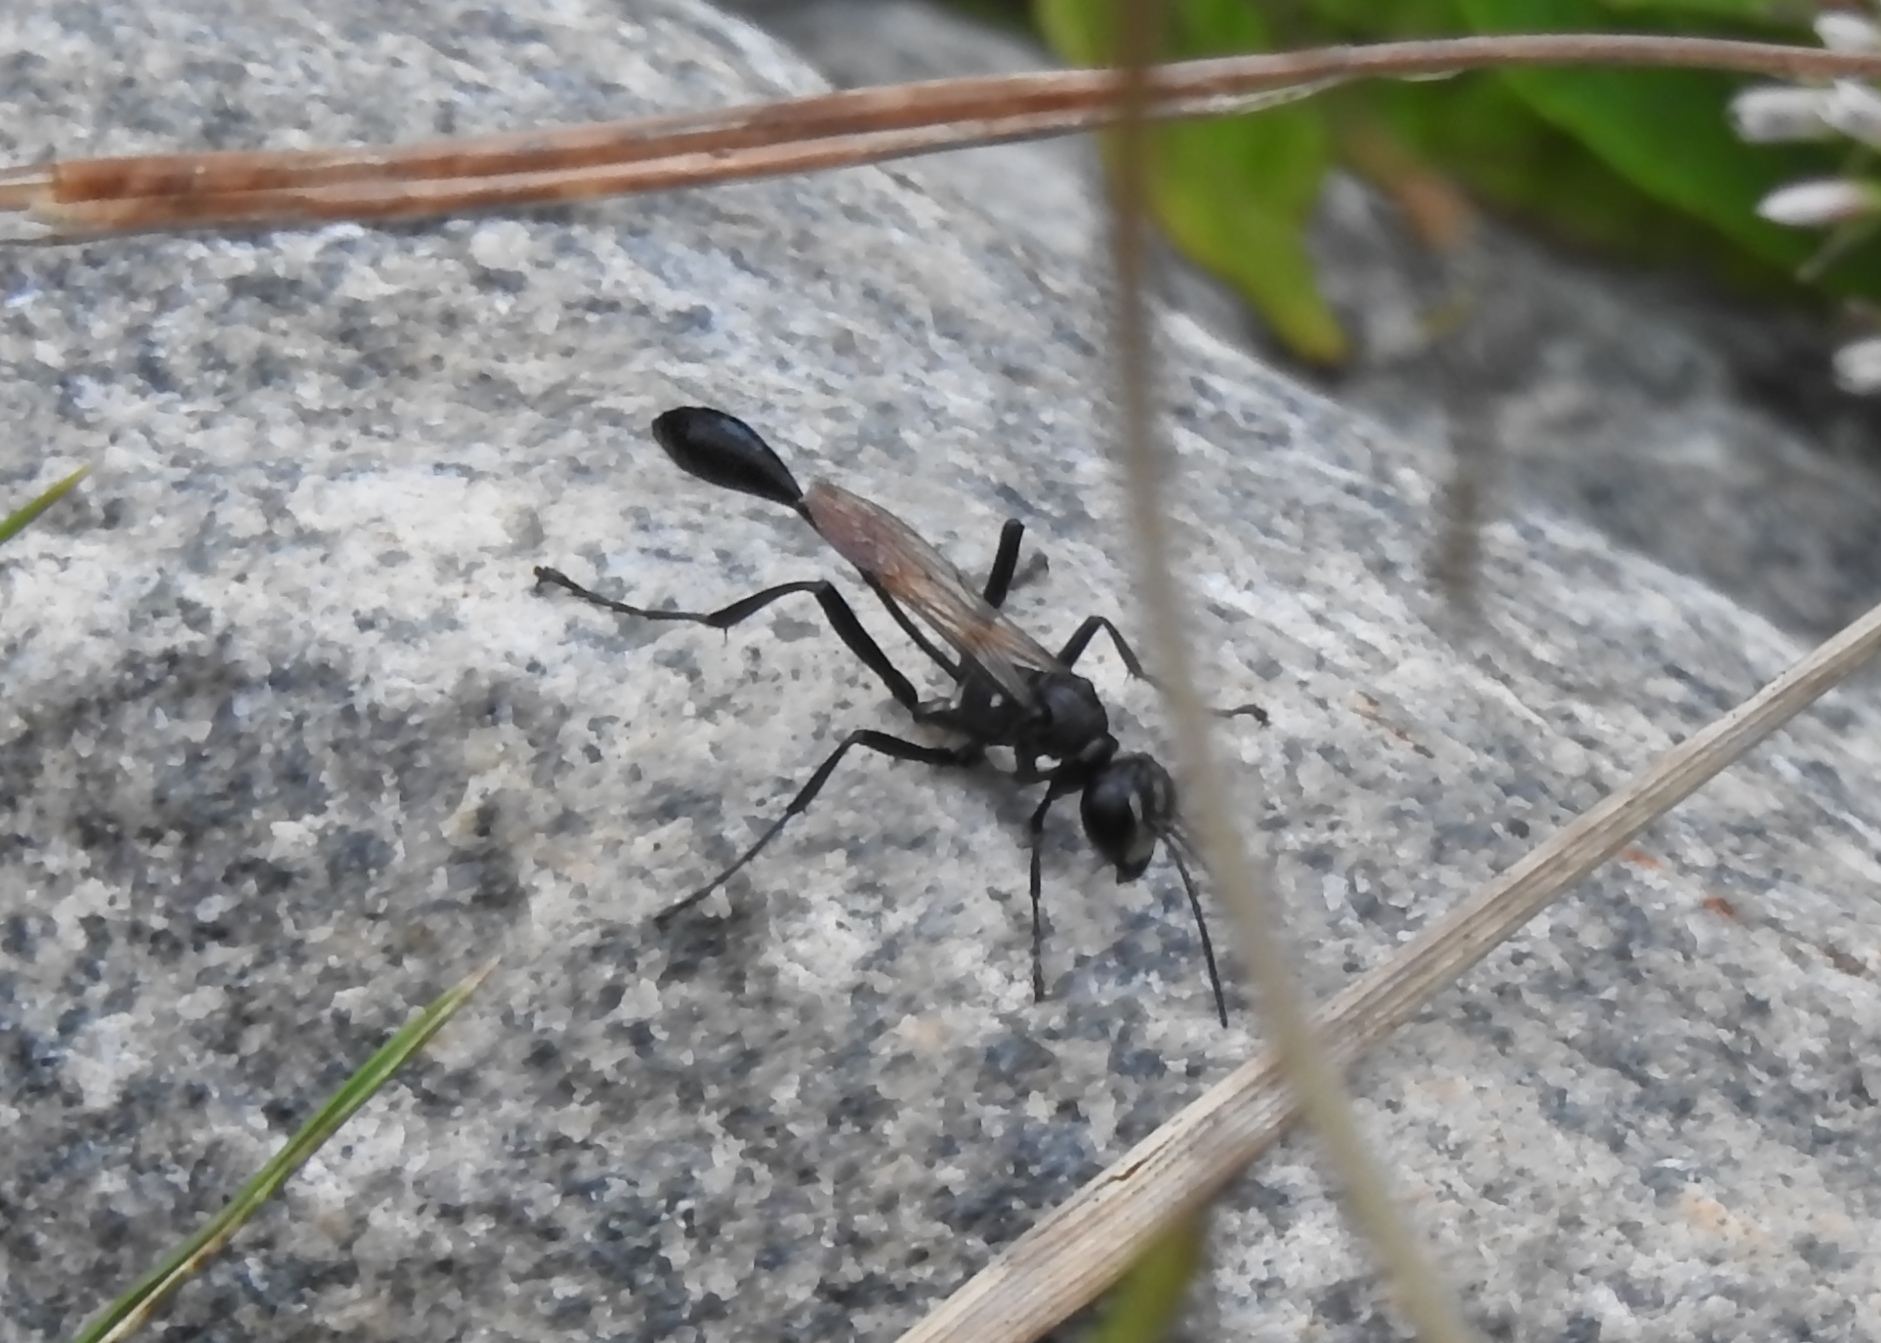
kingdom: Animalia
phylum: Arthropoda
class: Insecta
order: Hymenoptera
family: Sphecidae
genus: Eremnophila
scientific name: Eremnophila aureonotata
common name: Gold-marked thread-waisted wasp
